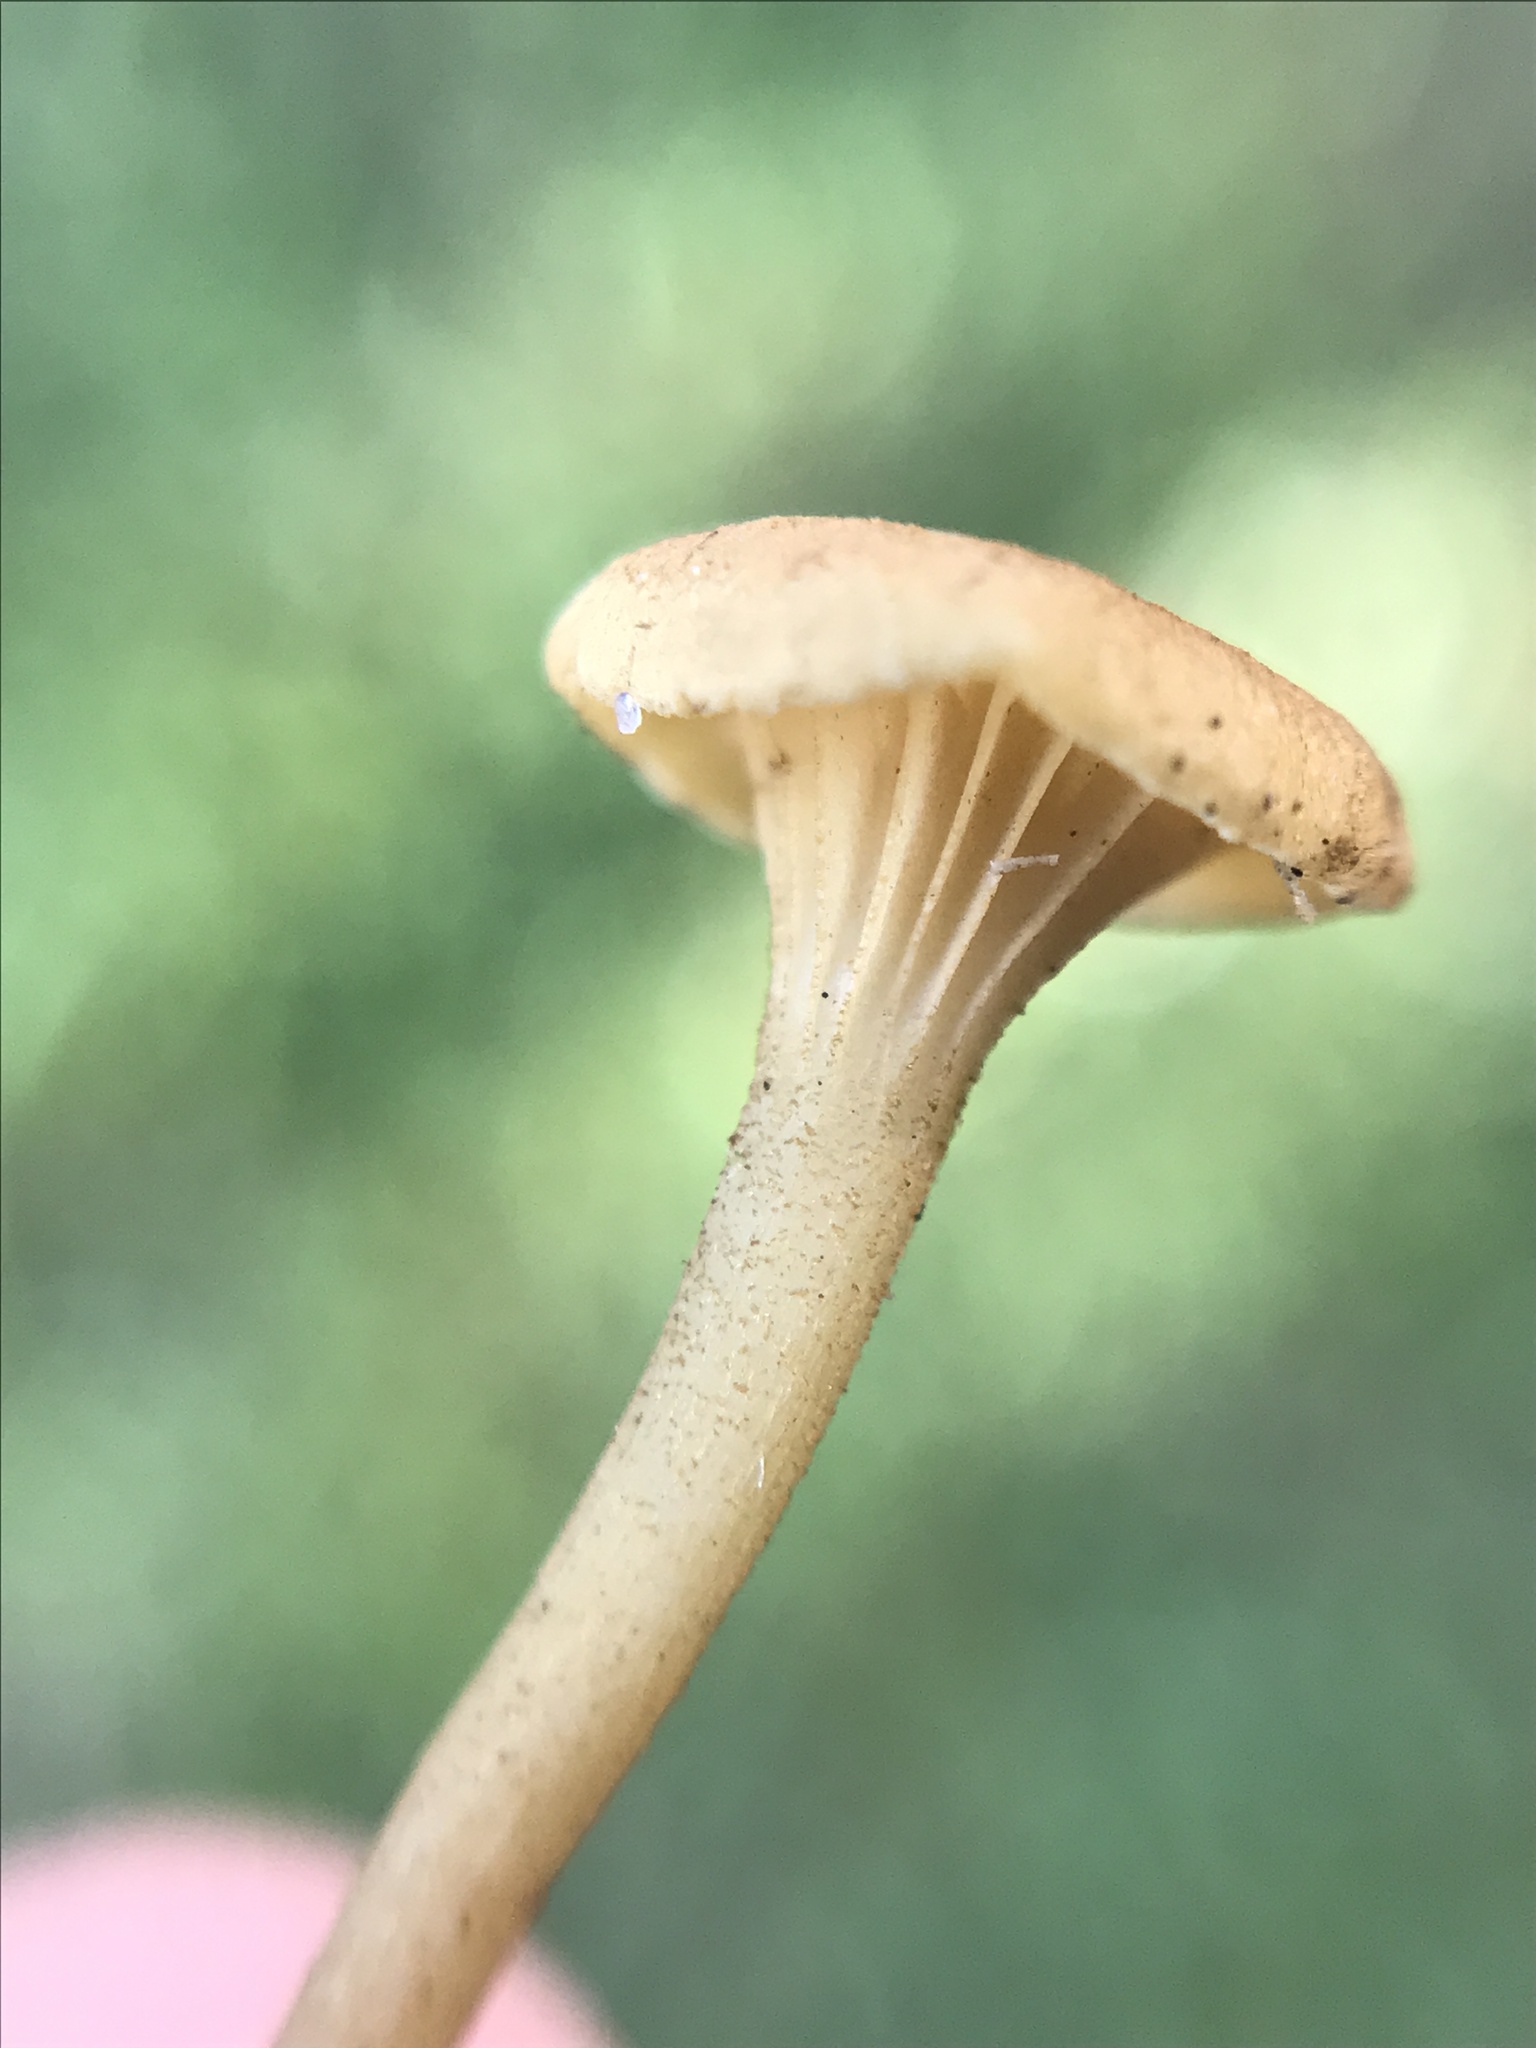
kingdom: Fungi
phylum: Basidiomycota
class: Agaricomycetes
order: Hymenochaetales
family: Rickenellaceae
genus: Rickenella
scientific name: Rickenella fibula
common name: Orange mosscap
